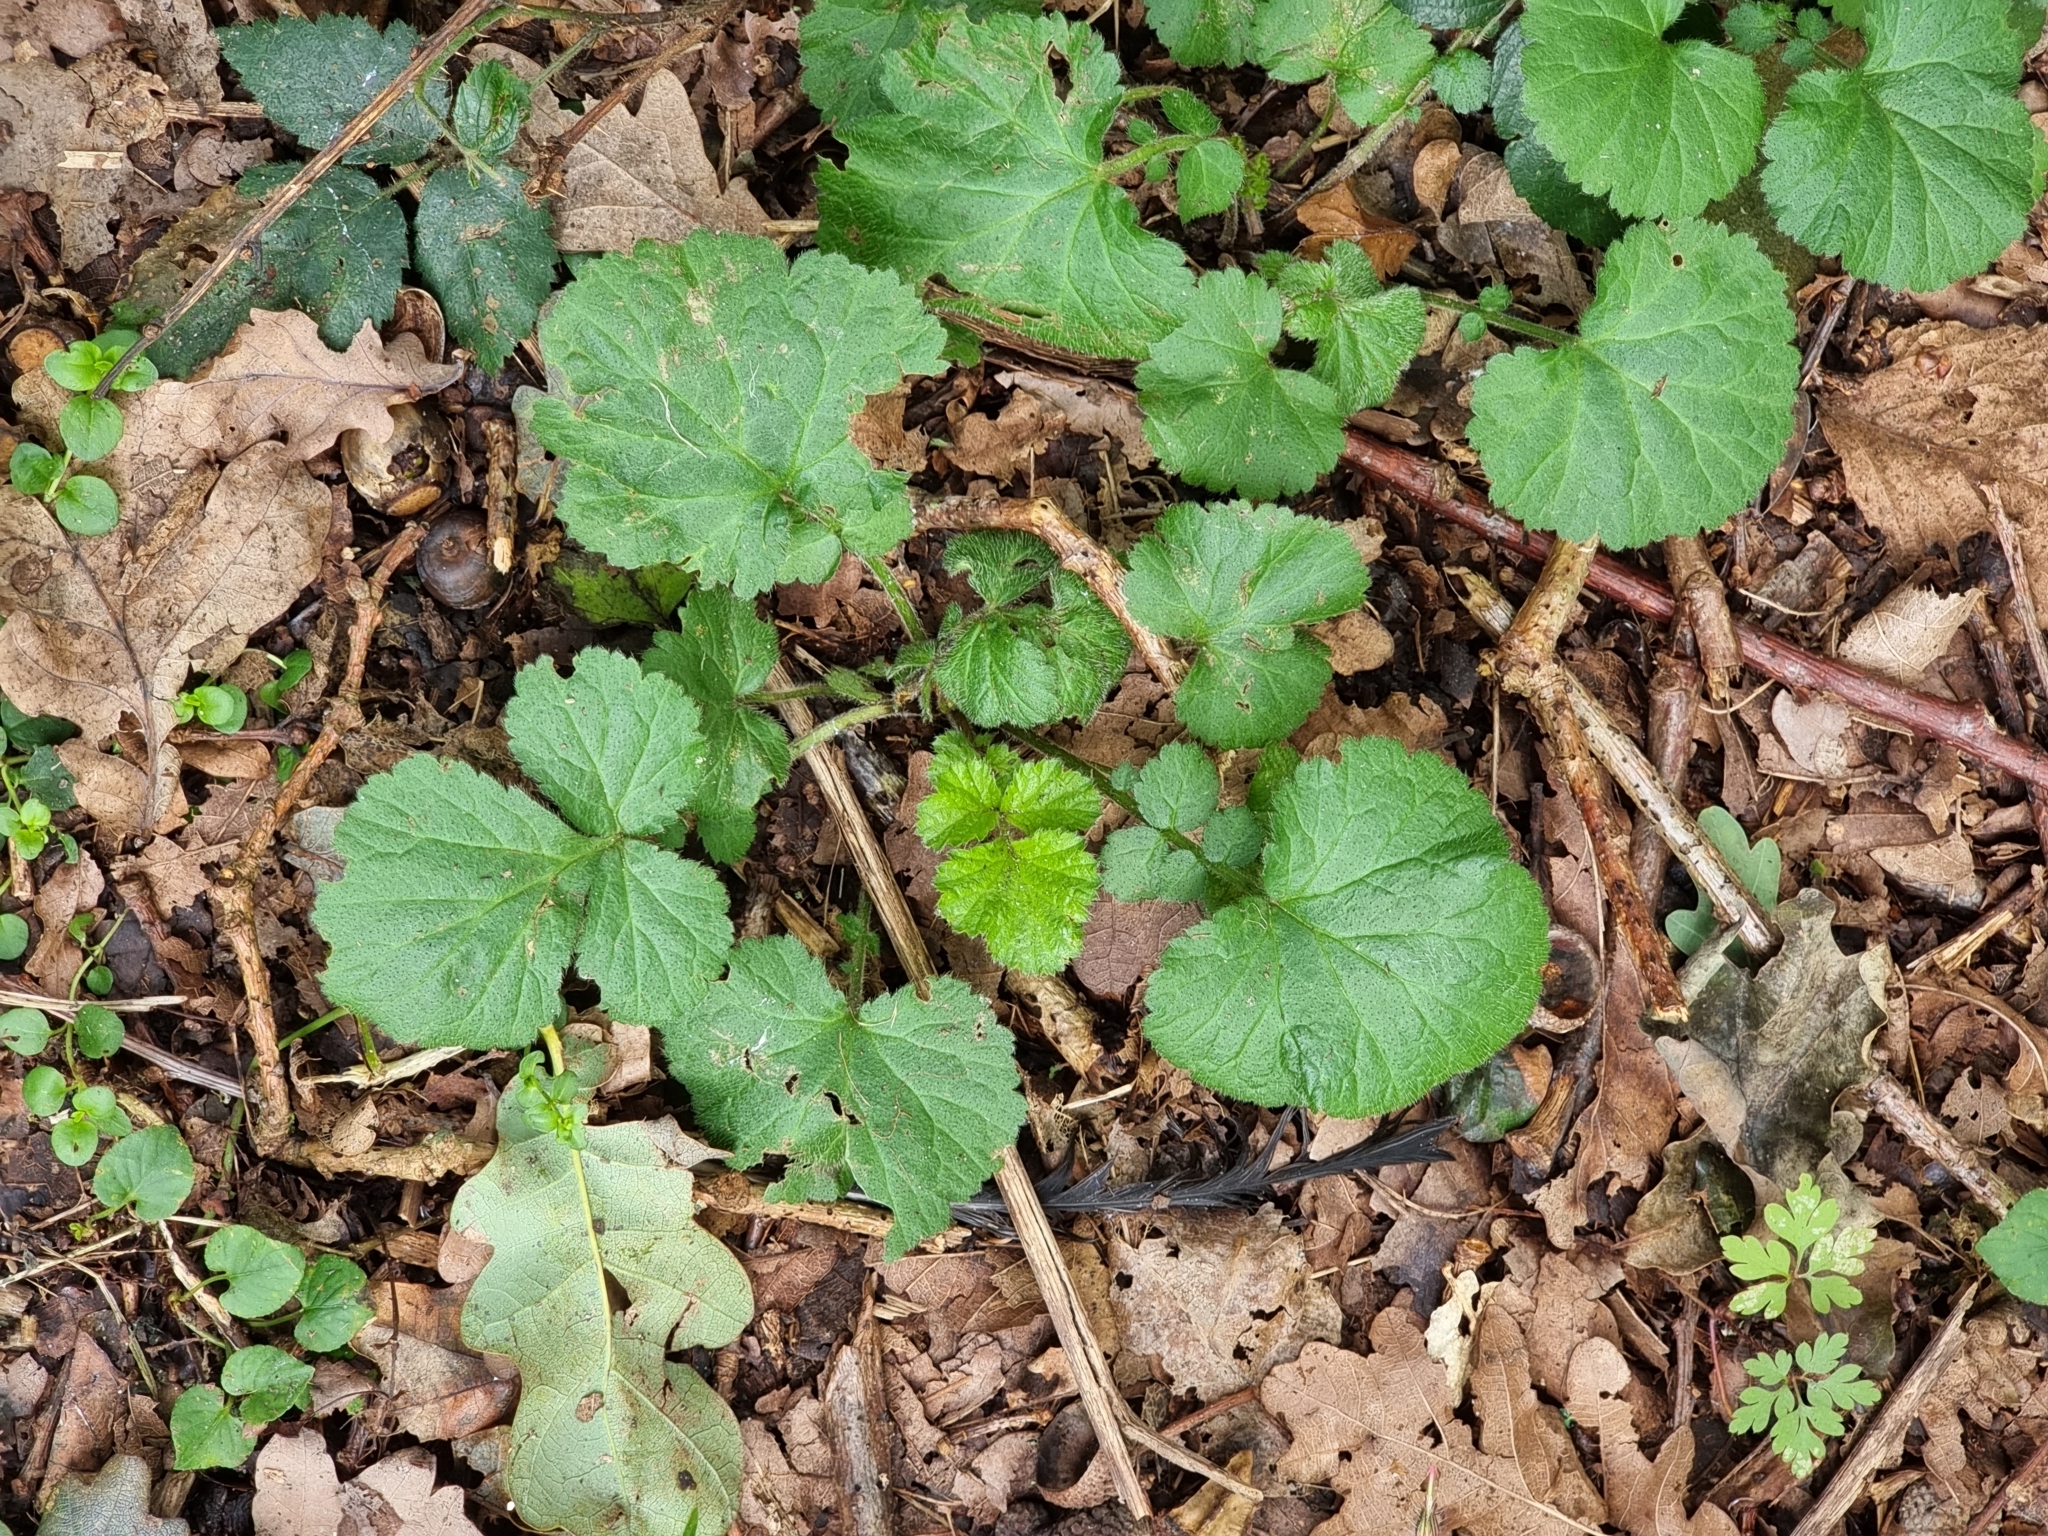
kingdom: Plantae
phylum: Tracheophyta
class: Magnoliopsida
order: Rosales
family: Rosaceae
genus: Geum
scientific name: Geum urbanum
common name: Wood avens
